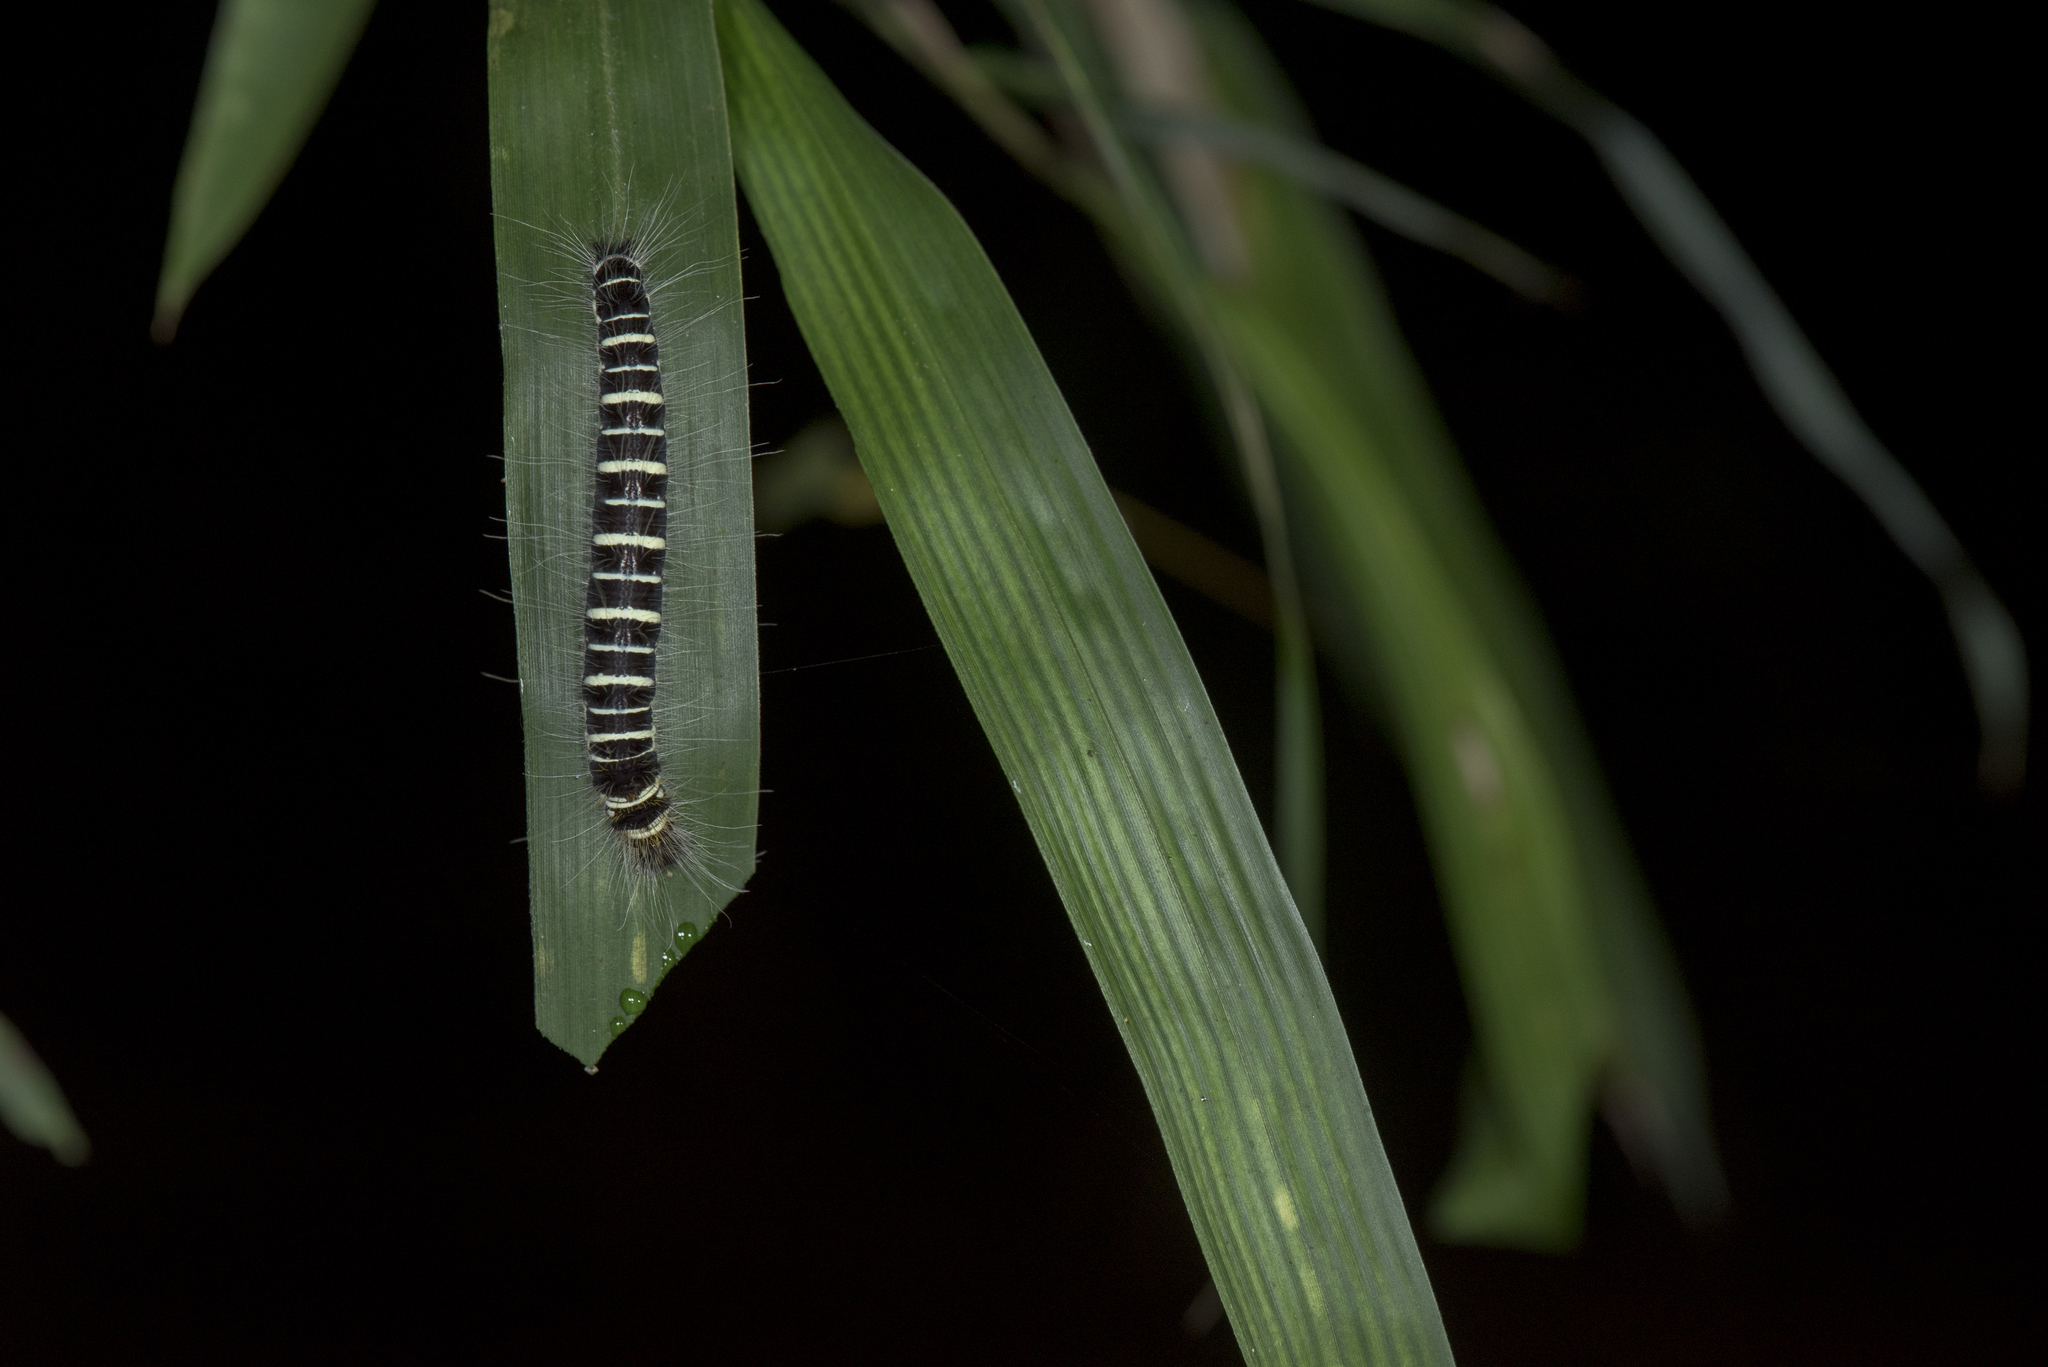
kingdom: Animalia
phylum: Arthropoda
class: Insecta
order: Lepidoptera
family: Nymphalidae
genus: Discophora
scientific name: Discophora sondaica
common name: Common duffer
